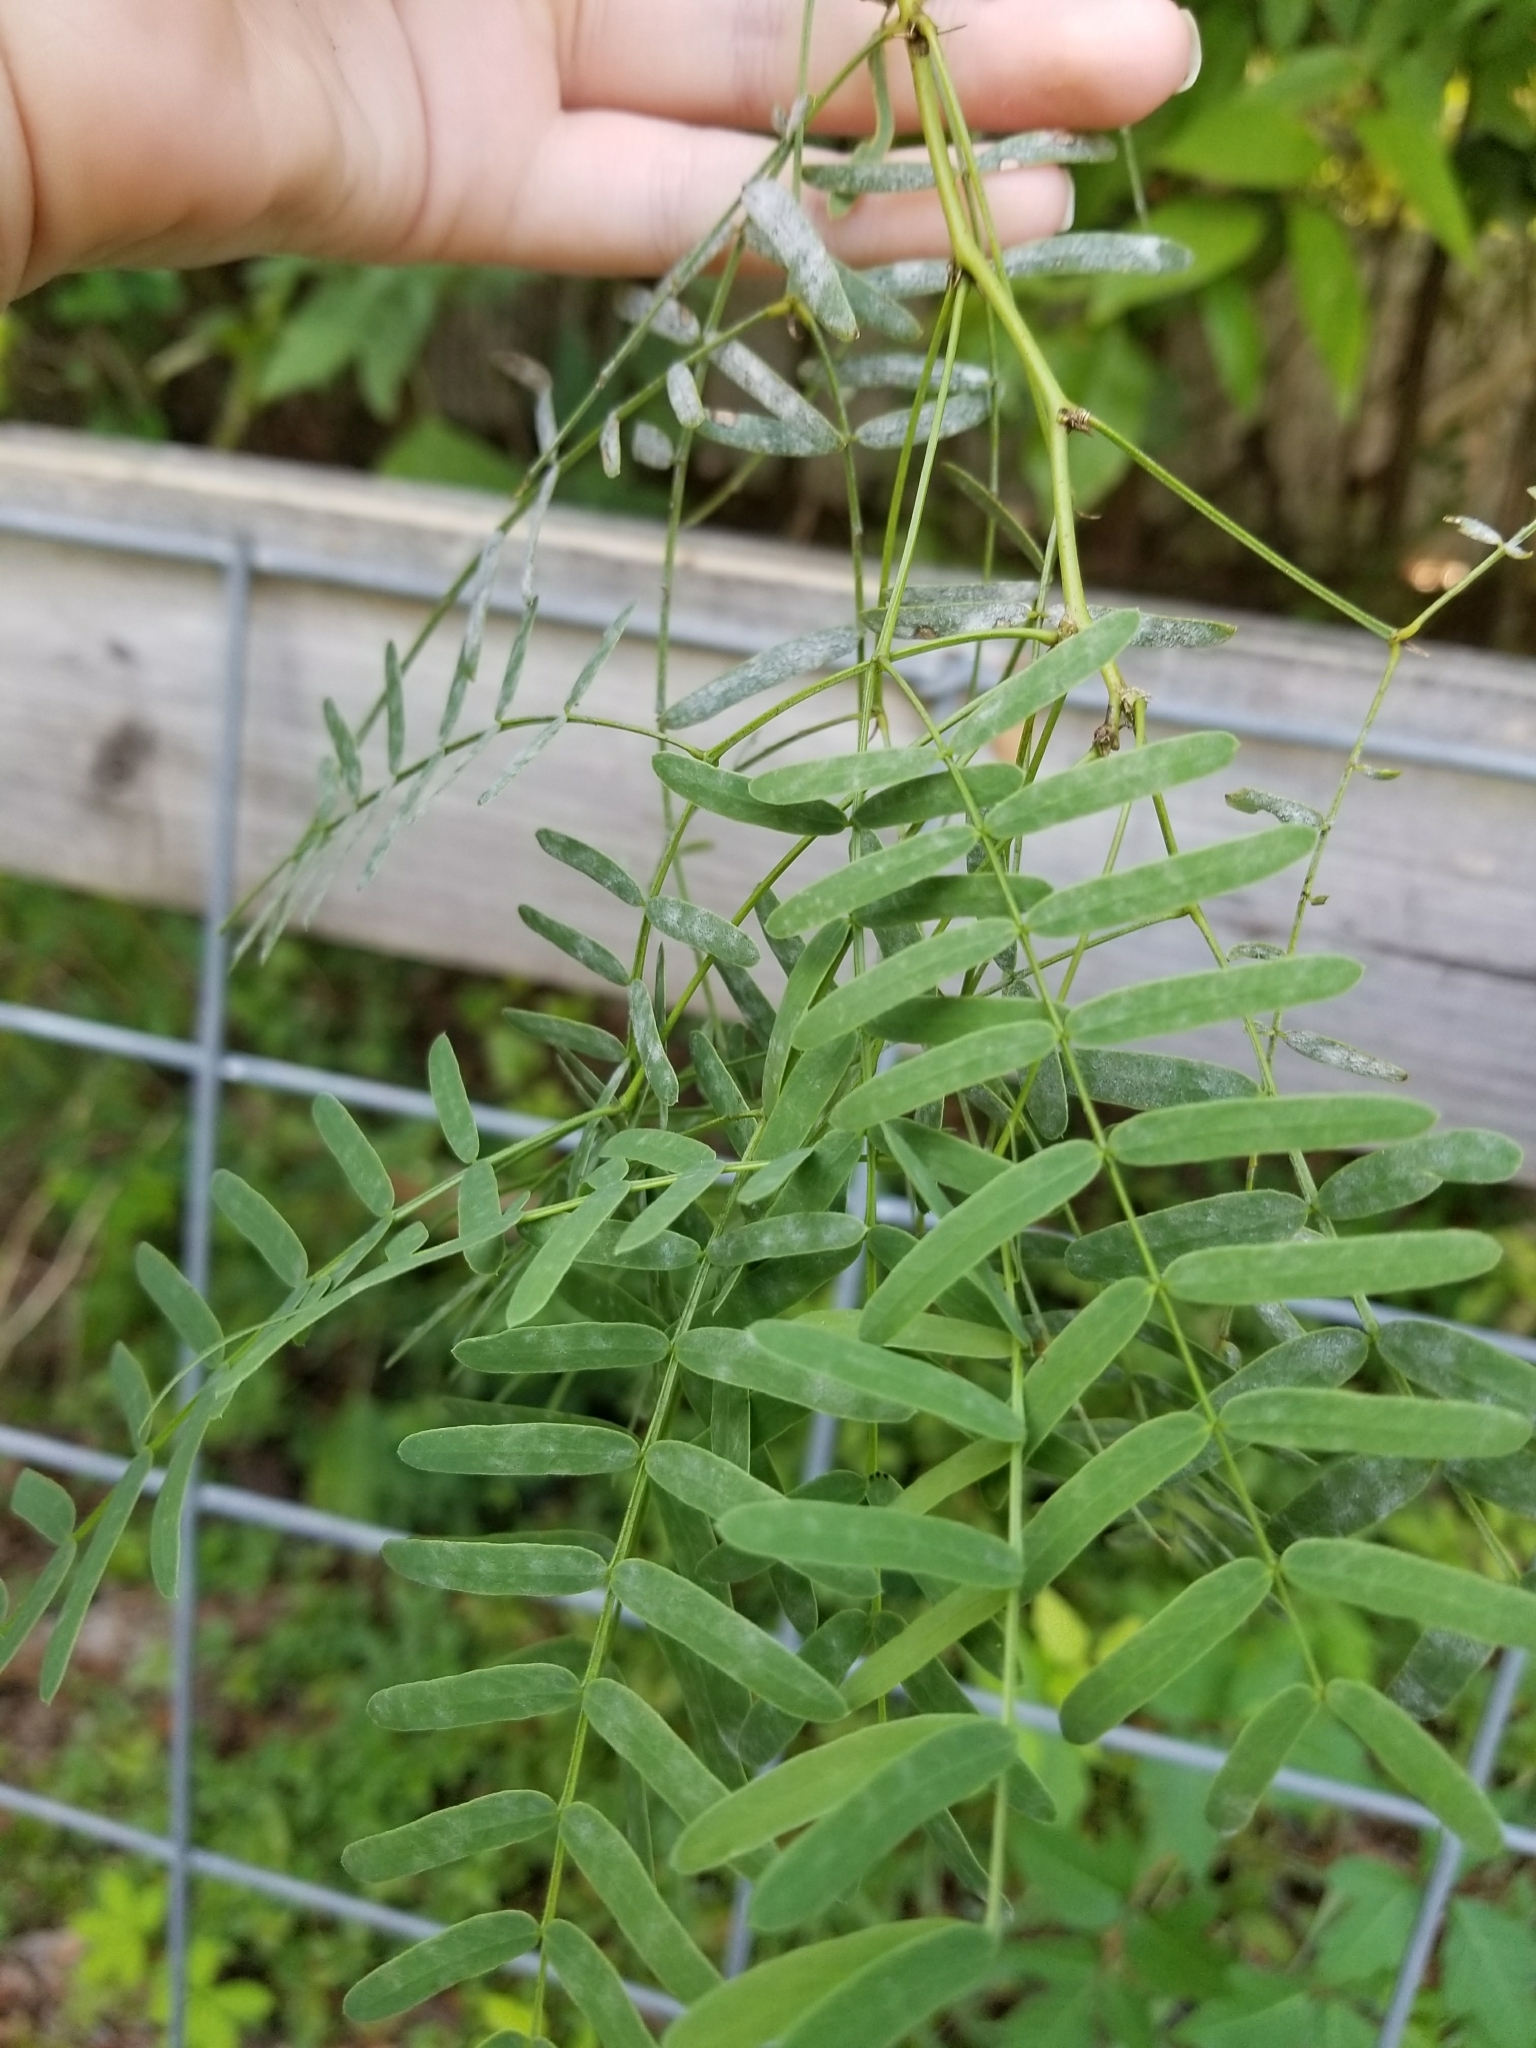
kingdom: Plantae
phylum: Tracheophyta
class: Magnoliopsida
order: Fabales
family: Fabaceae
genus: Prosopis
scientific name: Prosopis glandulosa
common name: Honey mesquite
